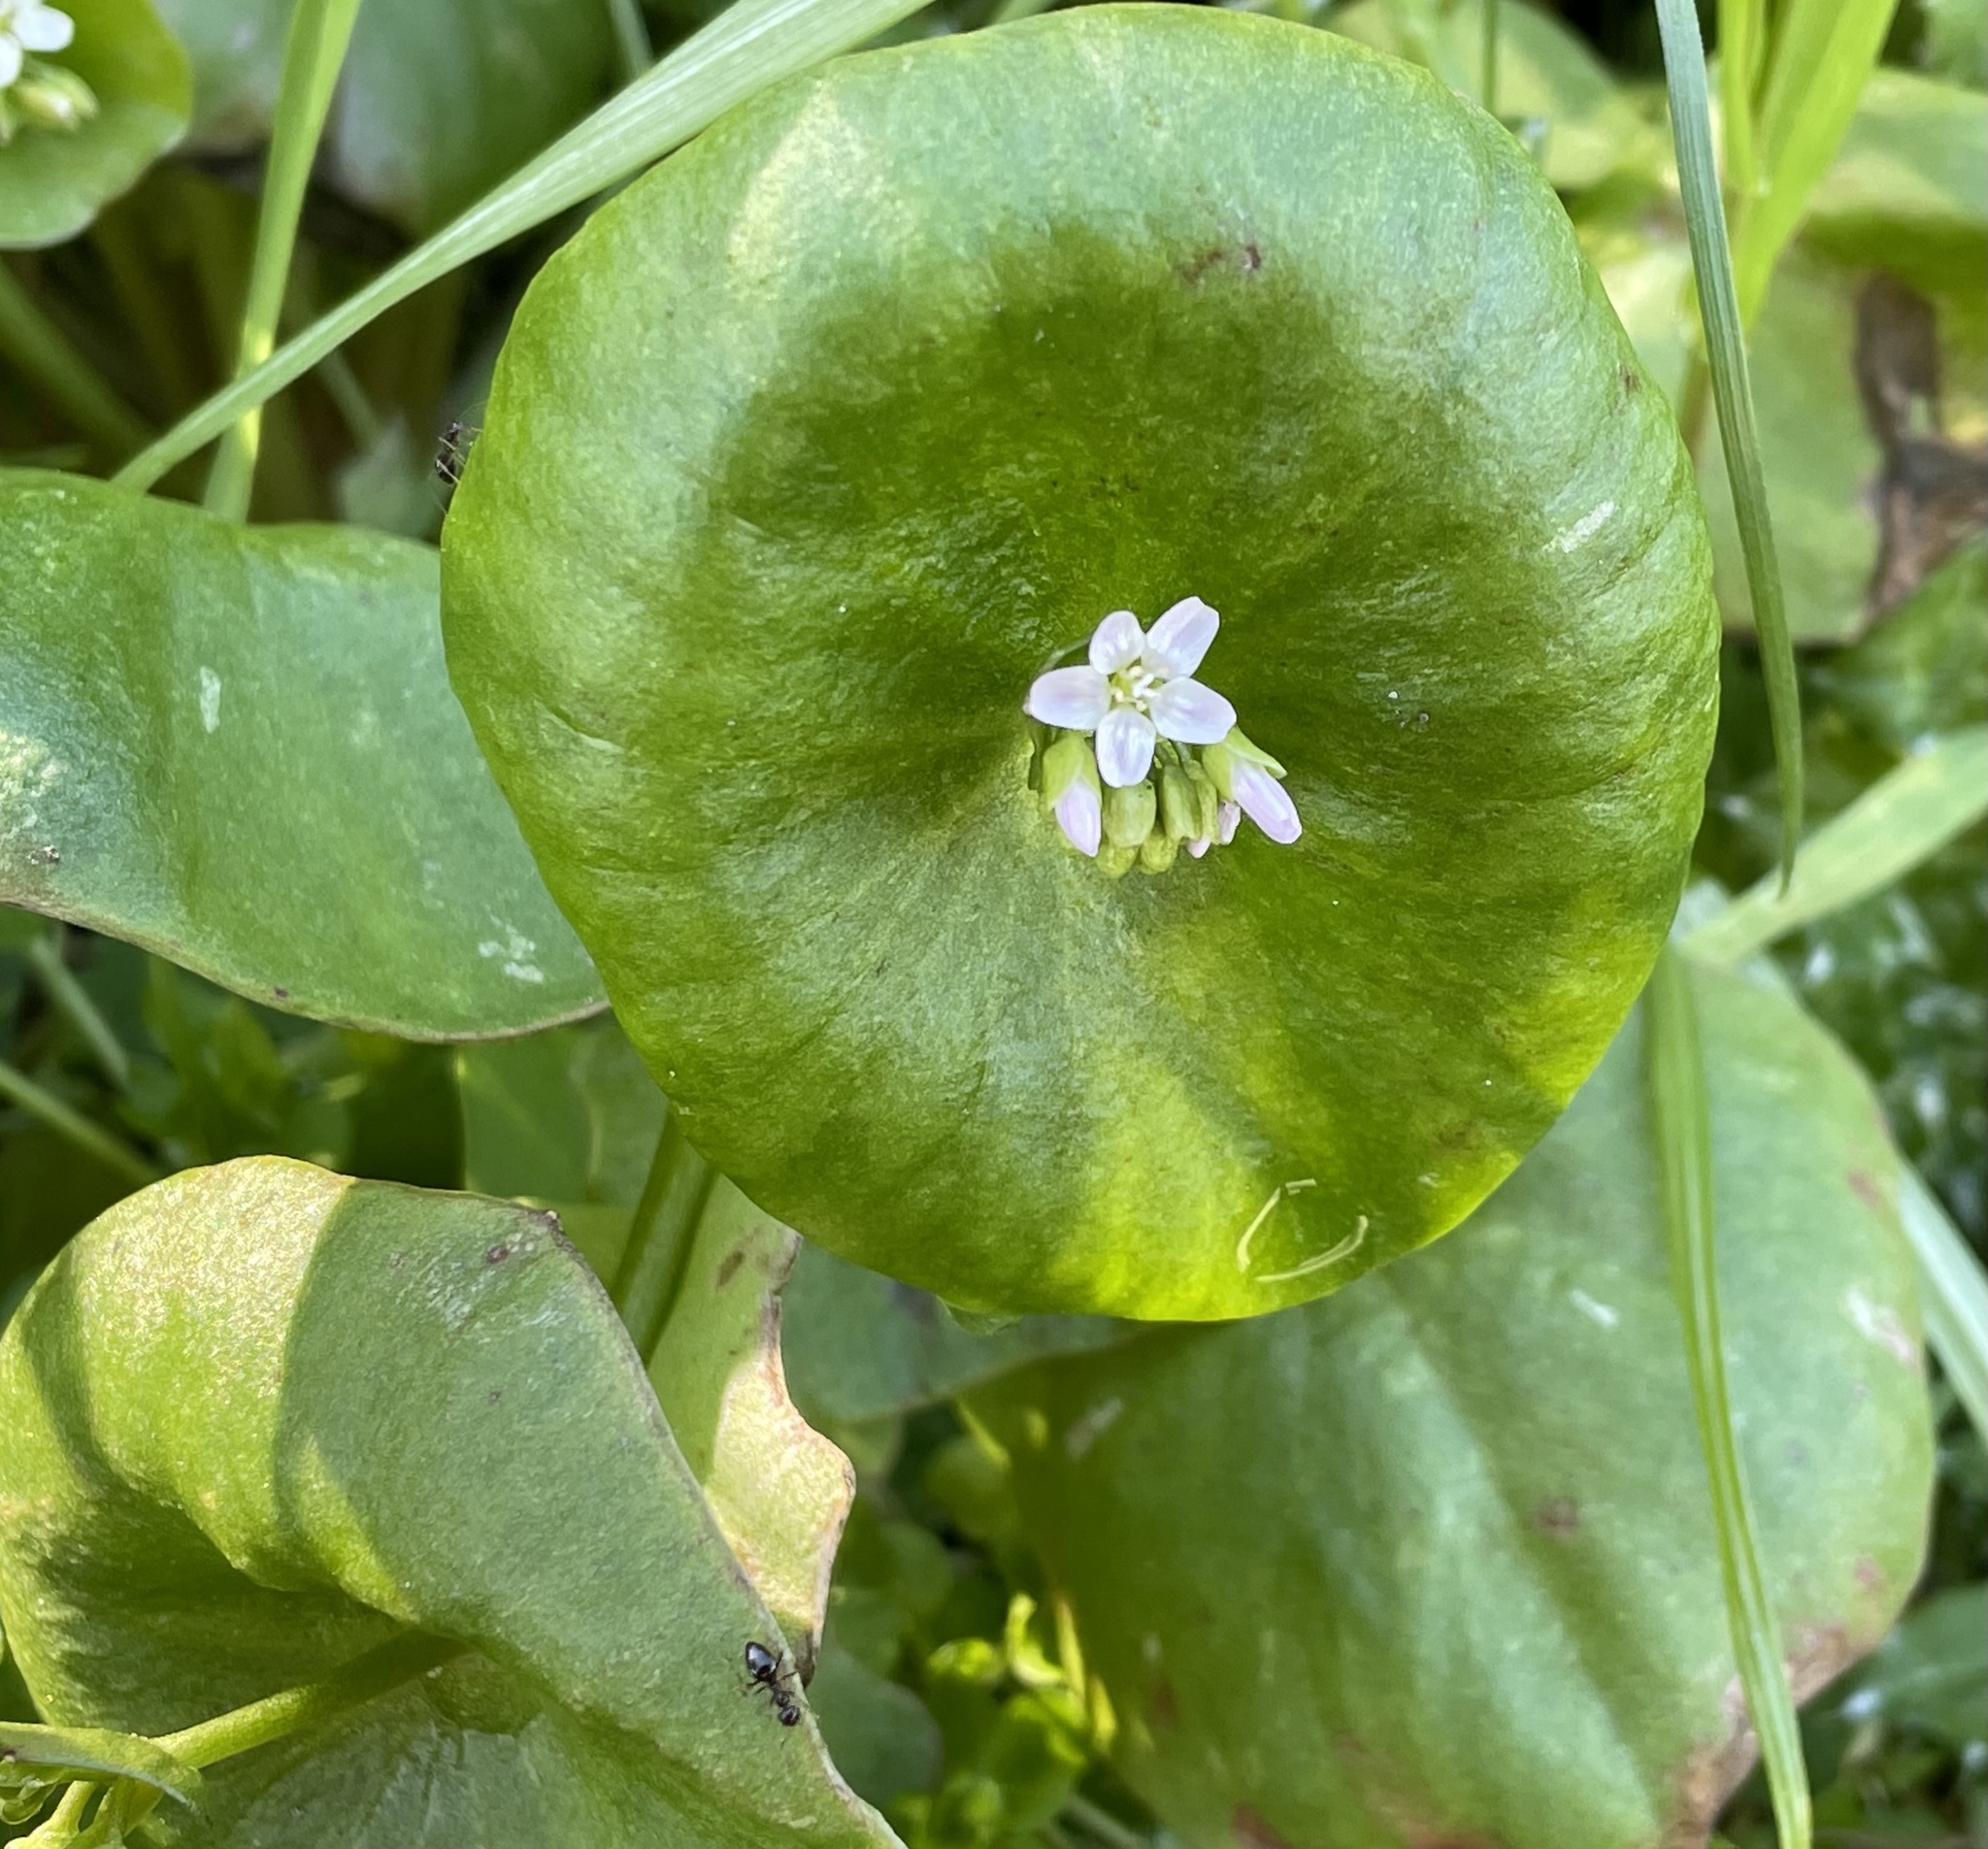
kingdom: Plantae
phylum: Tracheophyta
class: Magnoliopsida
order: Caryophyllales
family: Montiaceae
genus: Claytonia
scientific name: Claytonia perfoliata
